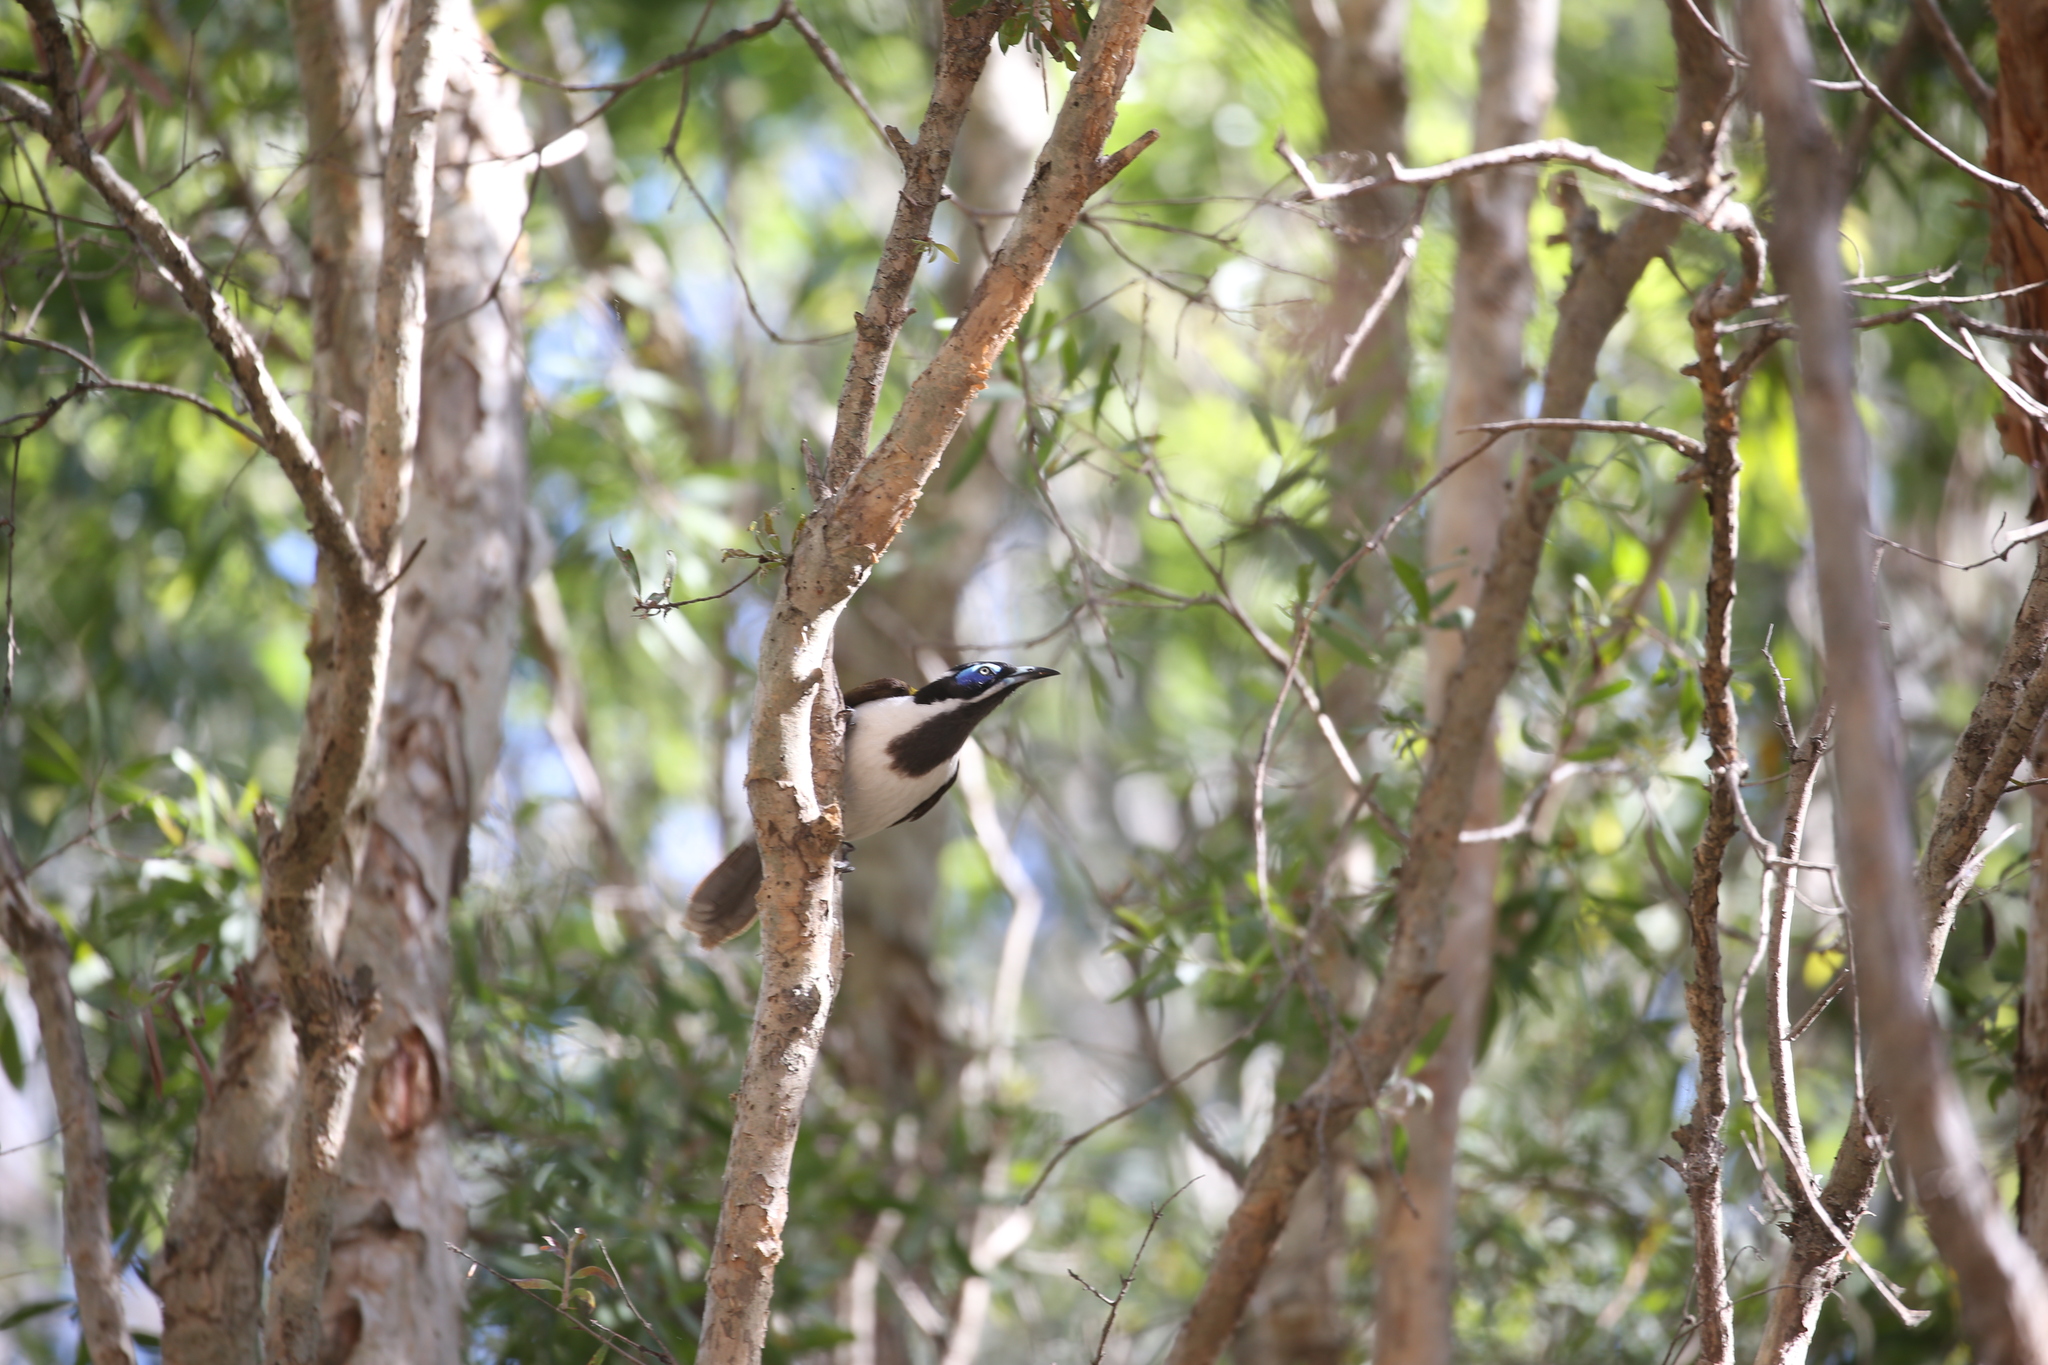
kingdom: Animalia
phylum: Chordata
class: Aves
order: Passeriformes
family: Meliphagidae
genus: Entomyzon
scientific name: Entomyzon cyanotis
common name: Blue-faced honeyeater
